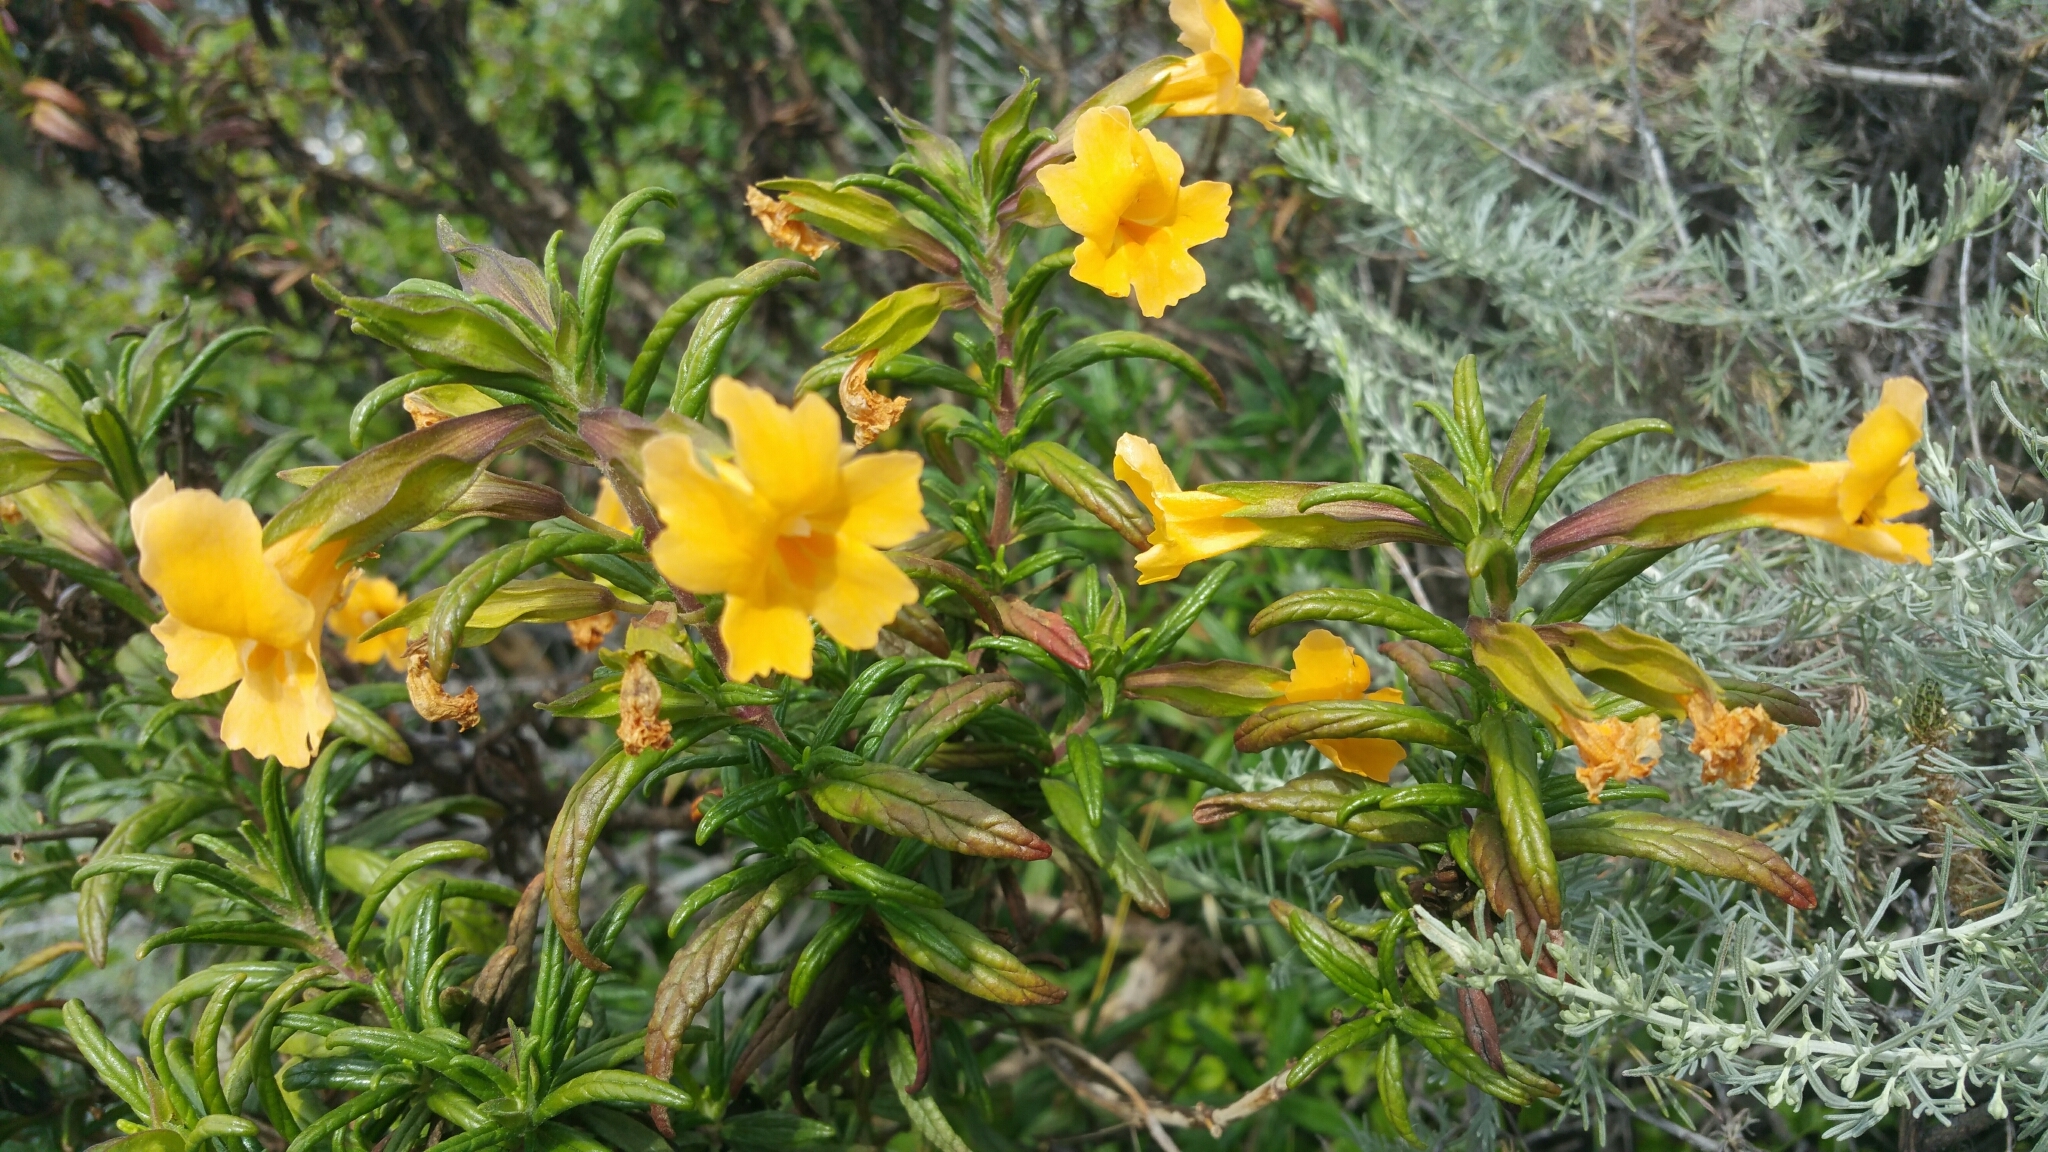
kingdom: Plantae
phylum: Tracheophyta
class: Magnoliopsida
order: Lamiales
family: Phrymaceae
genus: Diplacus
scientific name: Diplacus aurantiacus
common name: Bush monkey-flower
